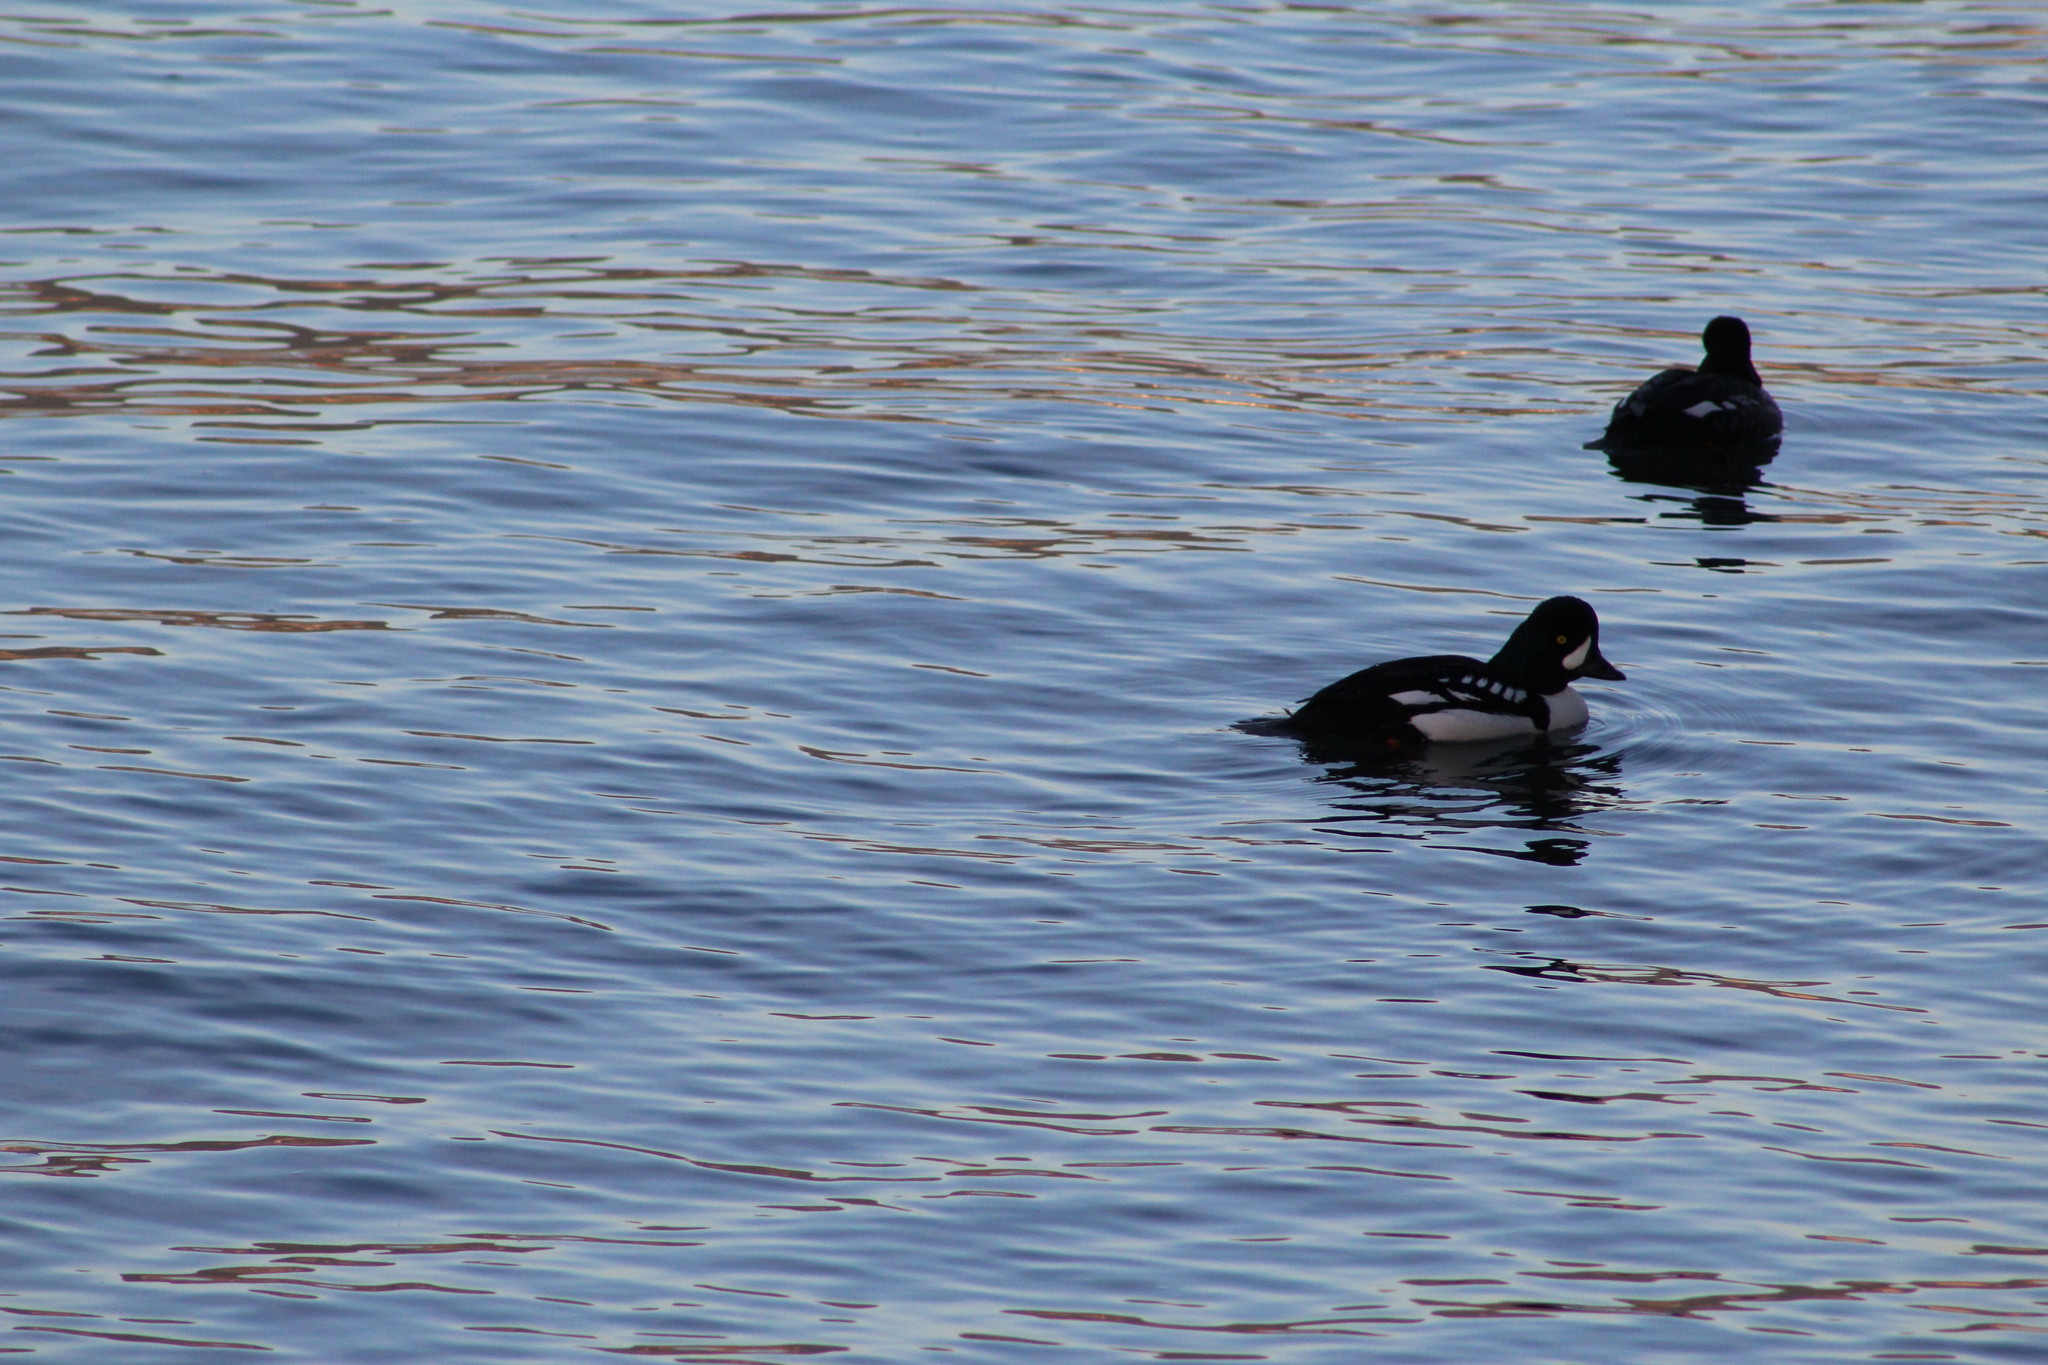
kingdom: Animalia
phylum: Chordata
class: Aves
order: Anseriformes
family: Anatidae
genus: Bucephala
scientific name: Bucephala islandica
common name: Barrow's goldeneye
